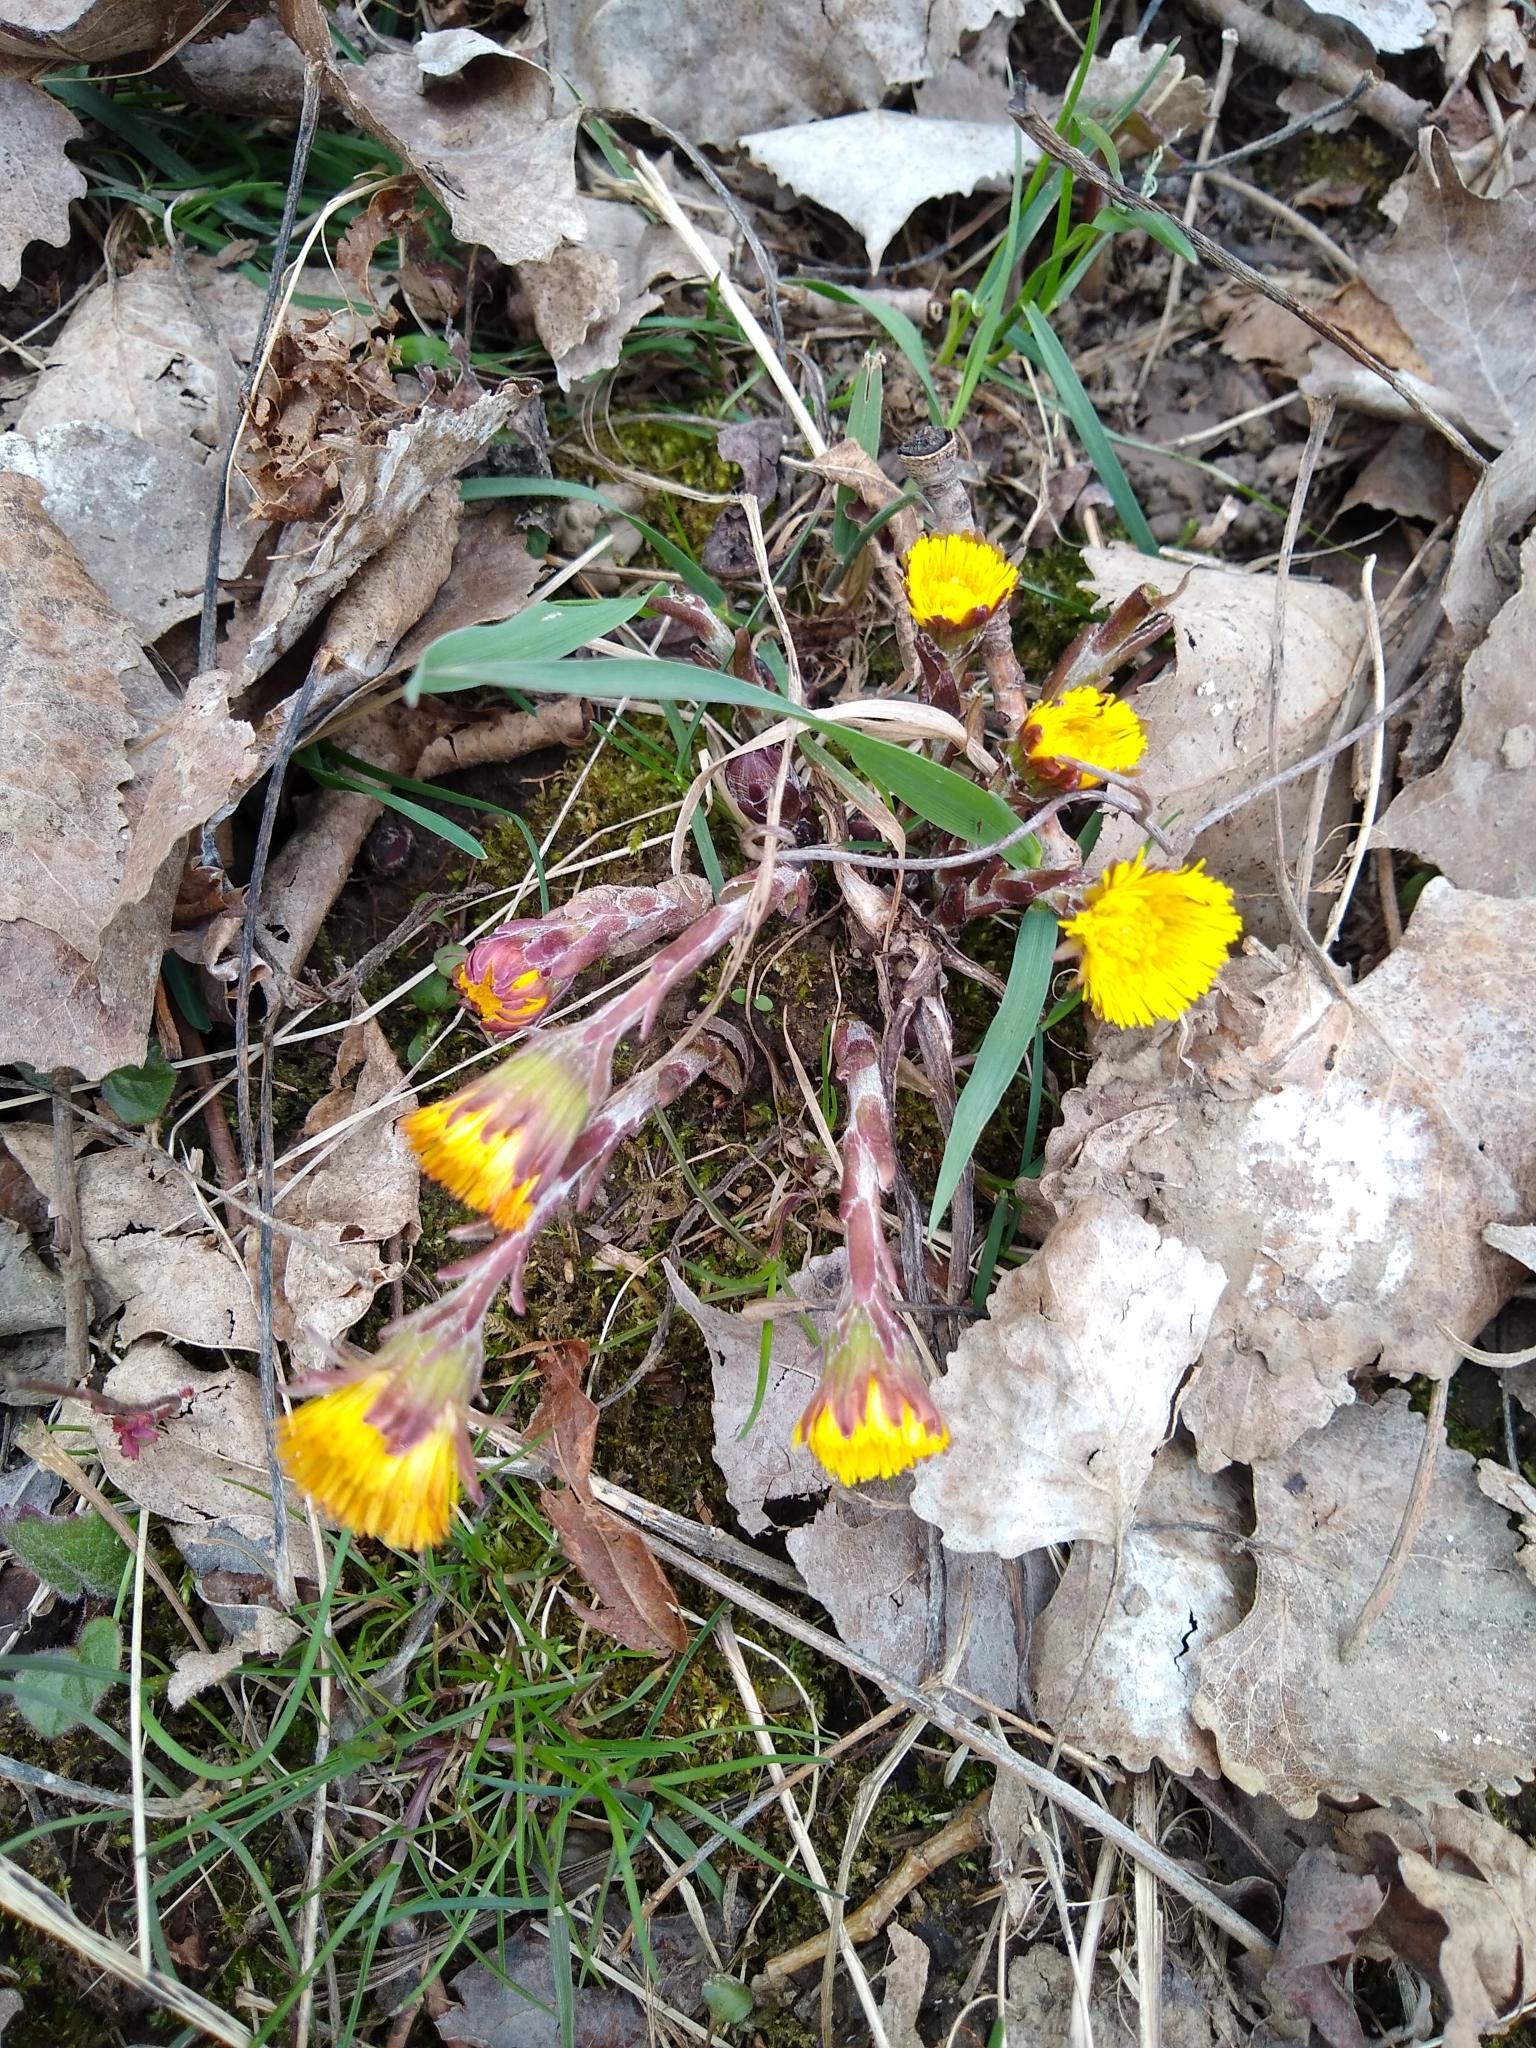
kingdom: Plantae
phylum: Tracheophyta
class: Magnoliopsida
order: Asterales
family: Asteraceae
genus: Tussilago
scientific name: Tussilago farfara
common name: Coltsfoot
